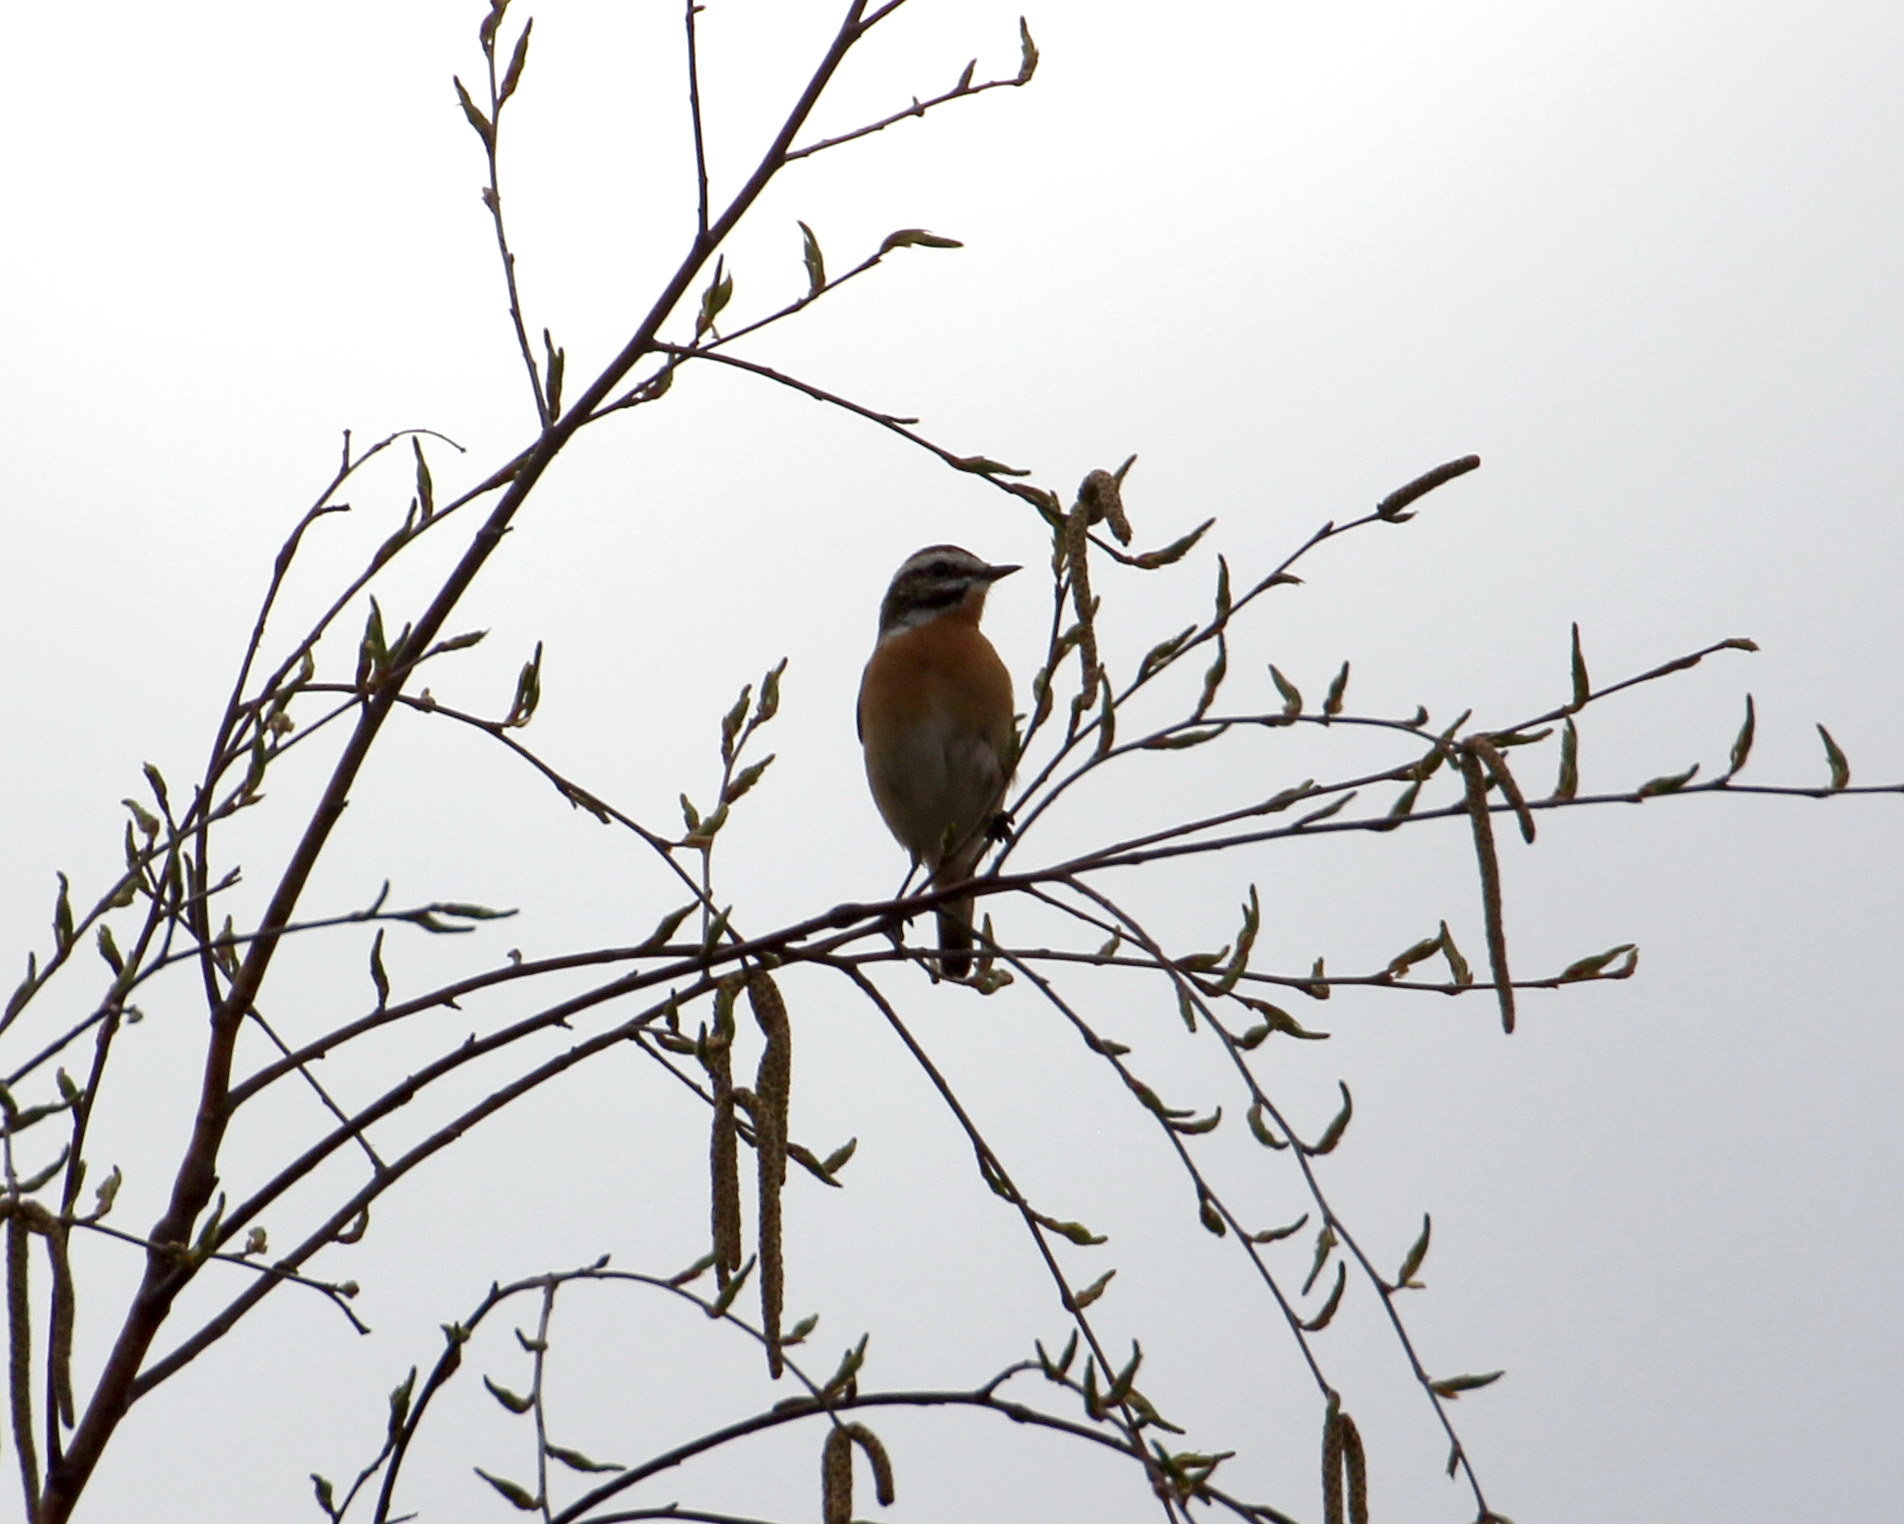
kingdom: Animalia
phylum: Chordata
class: Aves
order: Passeriformes
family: Muscicapidae
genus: Saxicola
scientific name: Saxicola rubetra
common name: Whinchat
